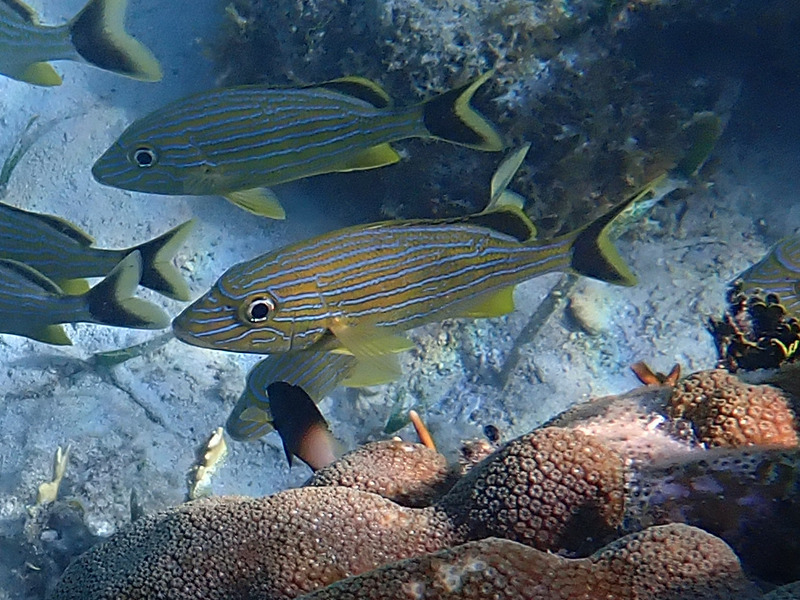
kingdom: Animalia
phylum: Chordata
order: Perciformes
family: Haemulidae
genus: Haemulon
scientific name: Haemulon sciurus
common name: Bluestriped grunt
